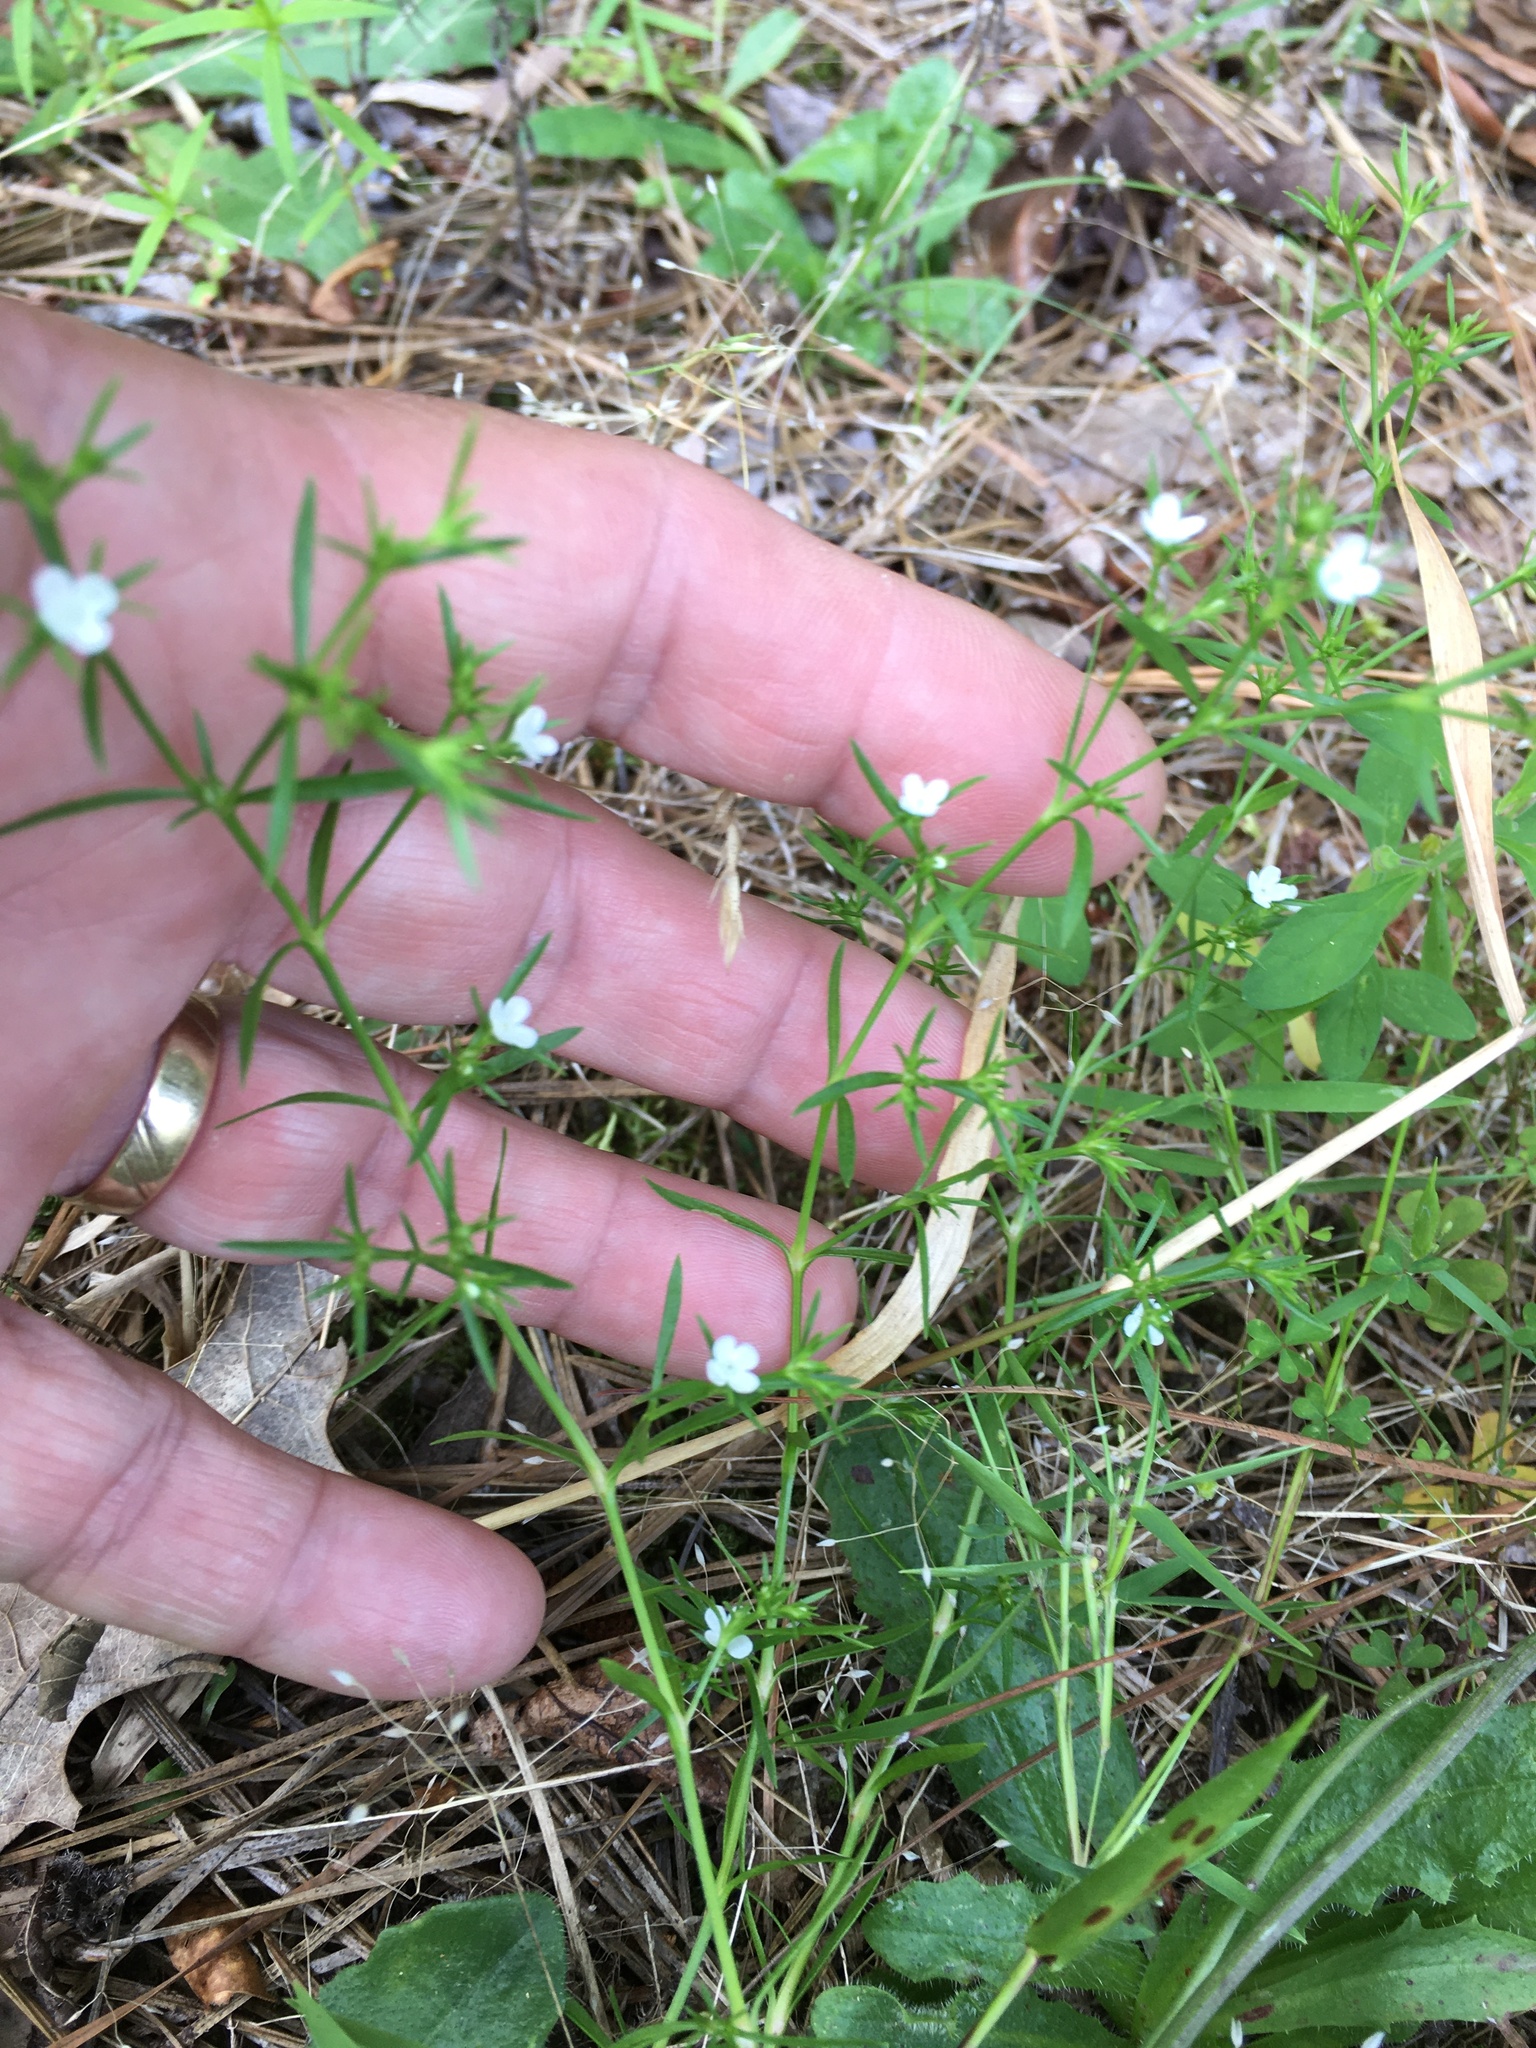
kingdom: Plantae
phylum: Tracheophyta
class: Magnoliopsida
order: Lamiales
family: Tetrachondraceae
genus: Polypremum
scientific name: Polypremum procumbens
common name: Juniper-leaf
